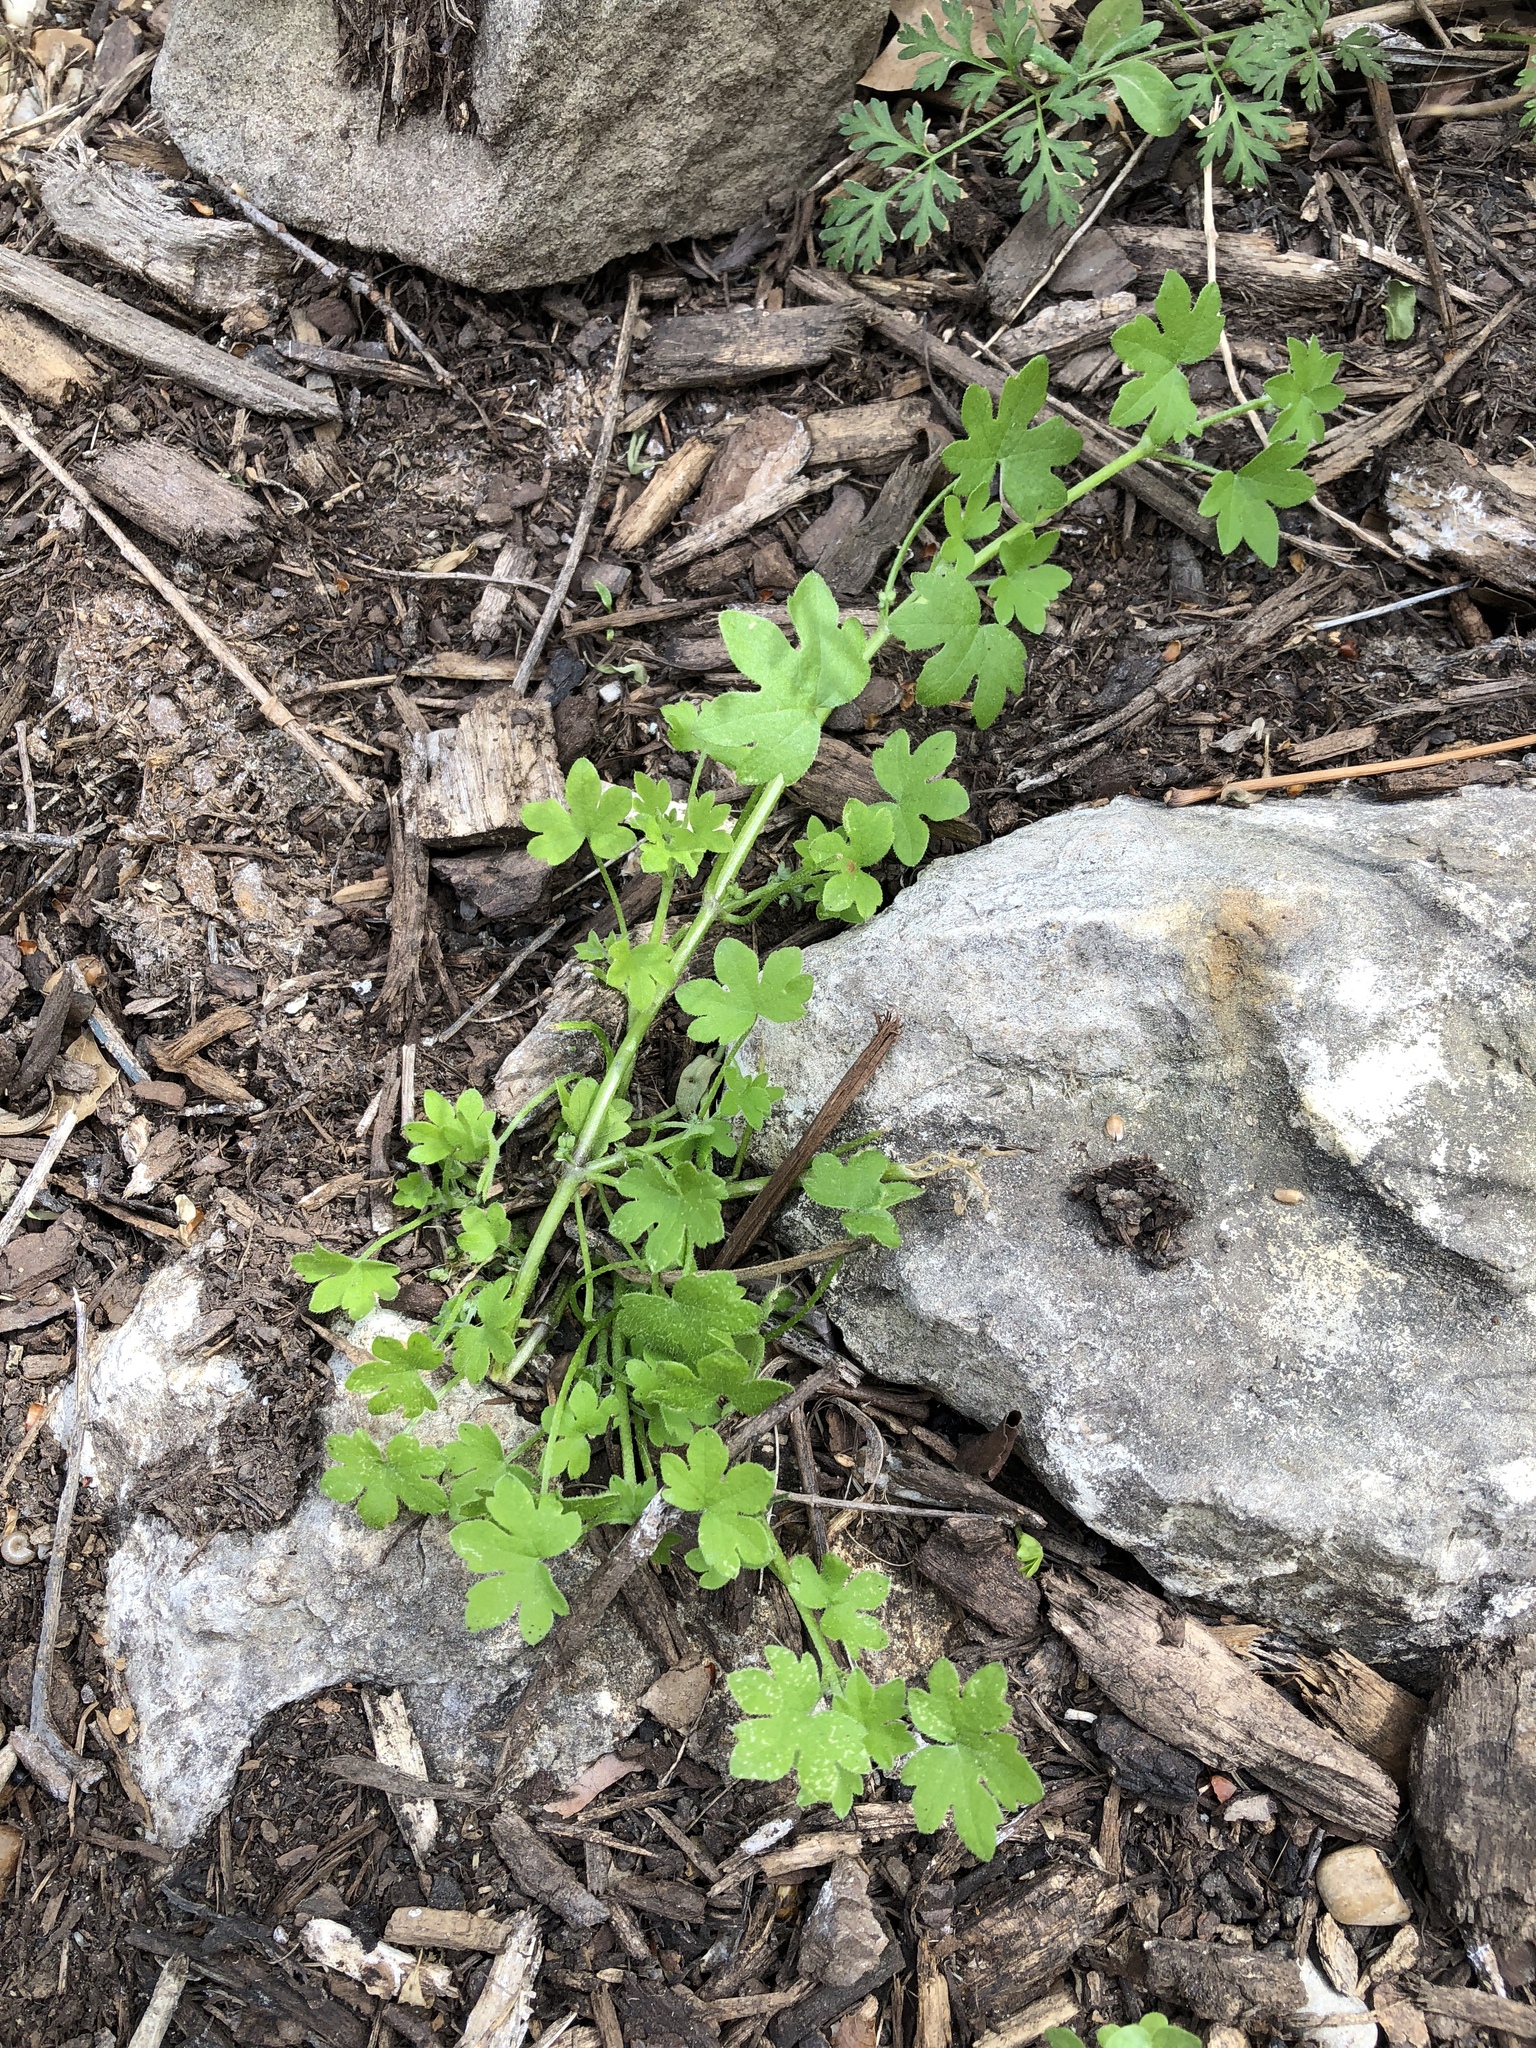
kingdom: Plantae
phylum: Tracheophyta
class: Magnoliopsida
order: Apiales
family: Apiaceae
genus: Bowlesia
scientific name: Bowlesia incana
